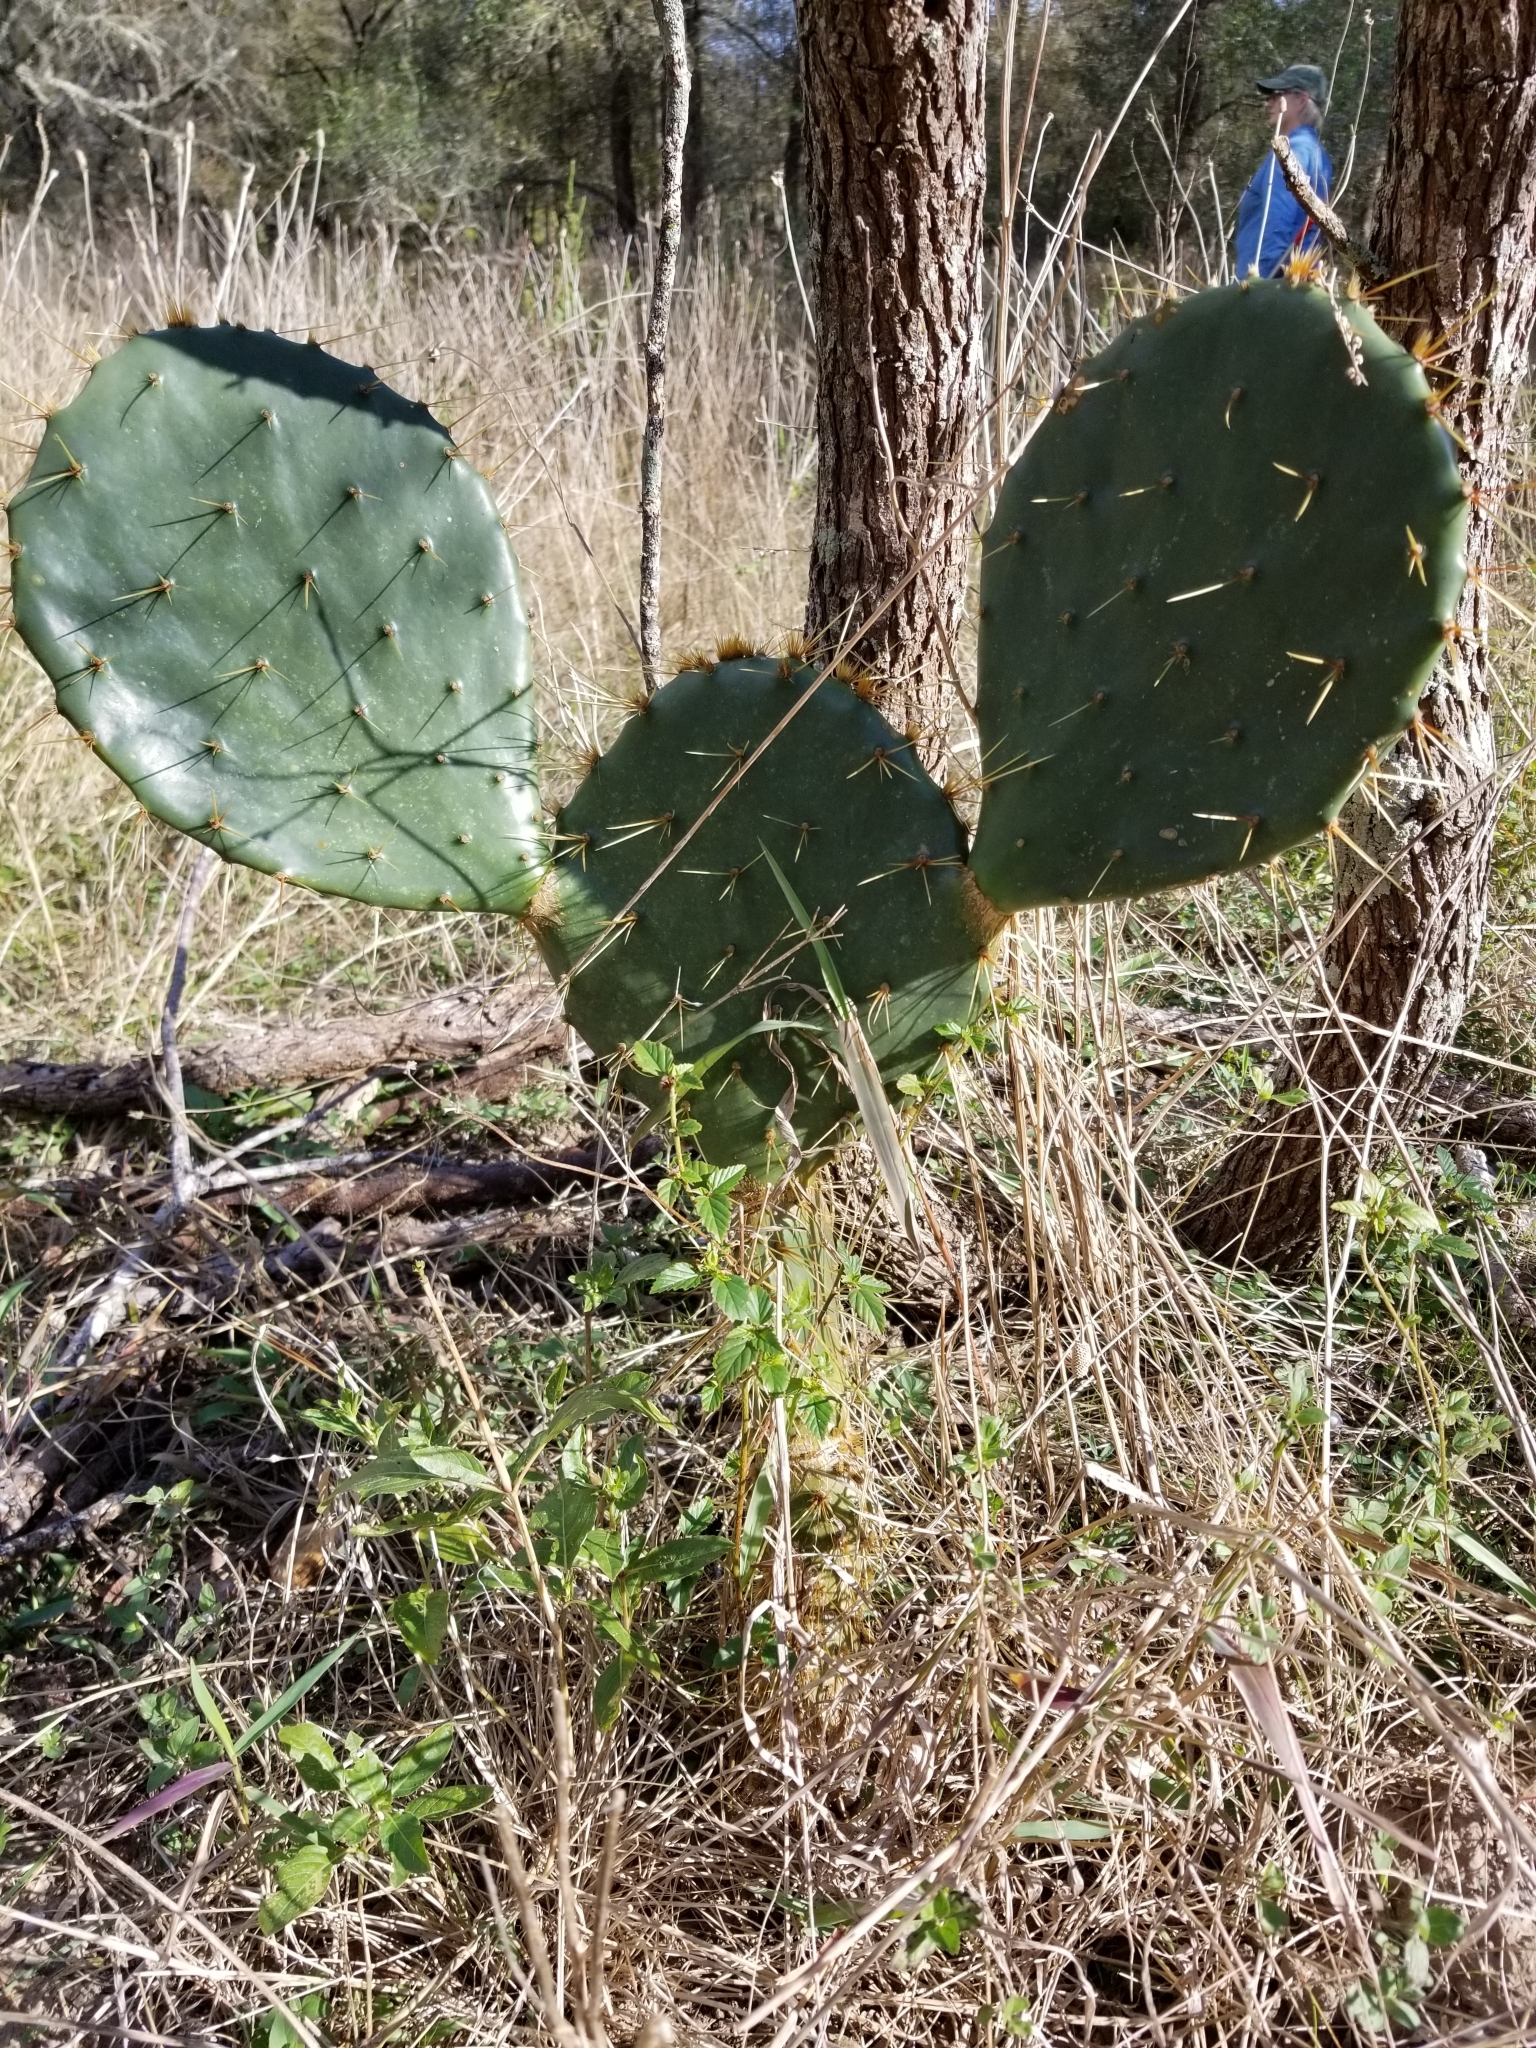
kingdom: Plantae
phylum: Tracheophyta
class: Magnoliopsida
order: Caryophyllales
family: Cactaceae
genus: Opuntia
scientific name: Opuntia engelmannii
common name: Cactus-apple
